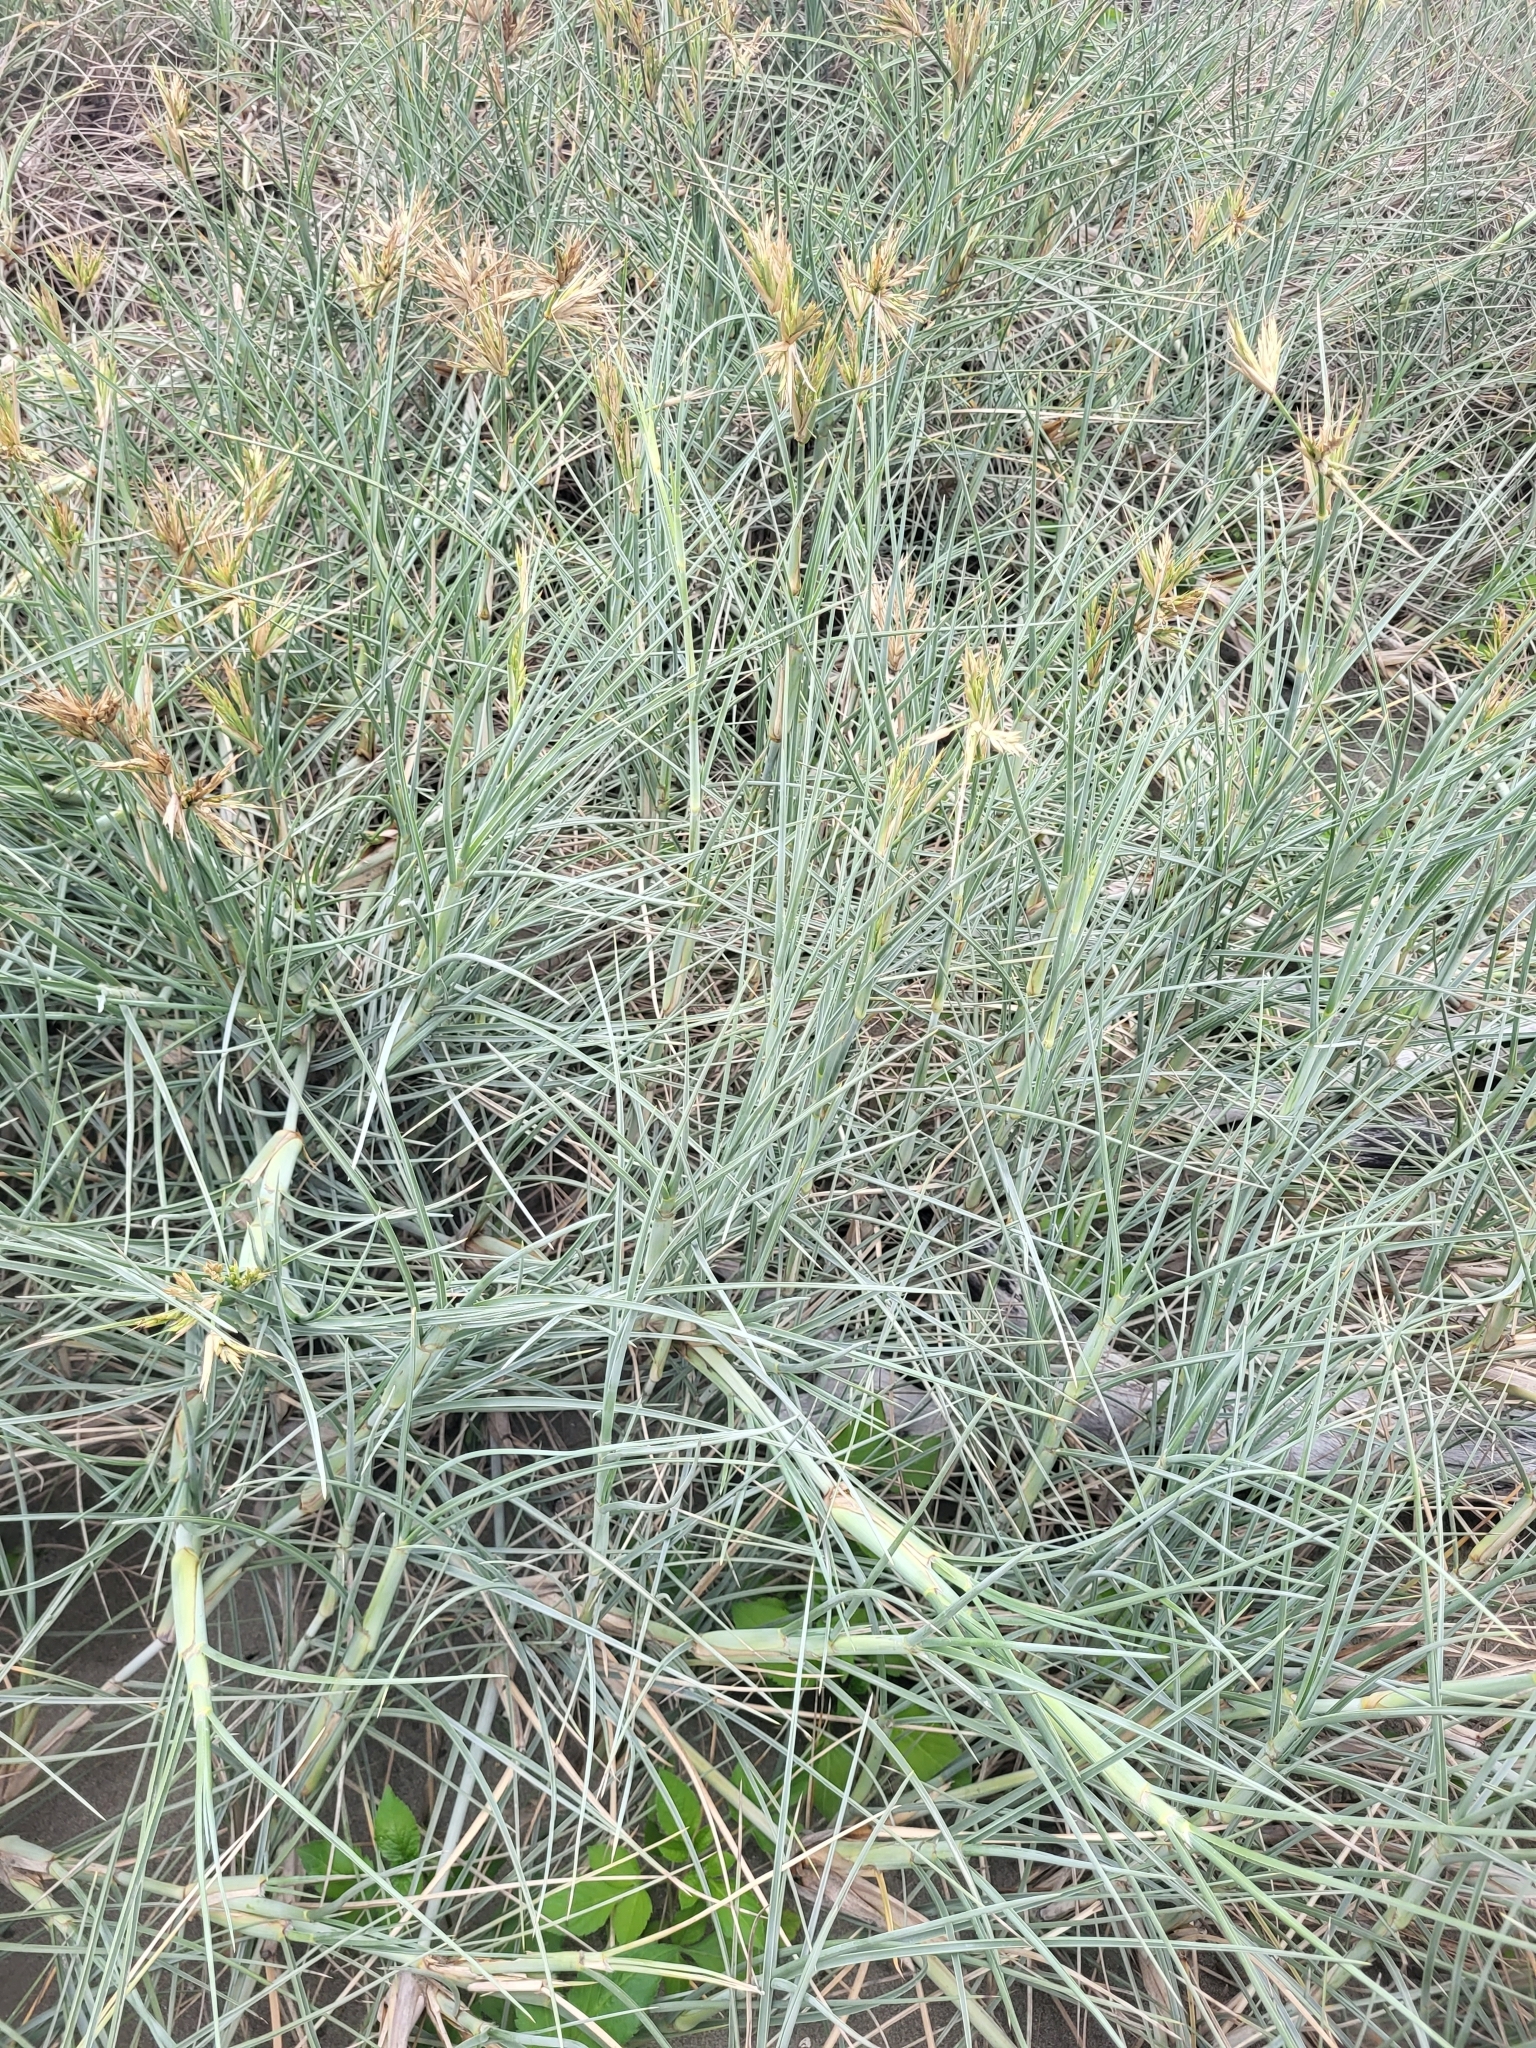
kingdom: Plantae
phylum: Tracheophyta
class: Liliopsida
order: Poales
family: Poaceae
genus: Spinifex
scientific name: Spinifex littoreus
